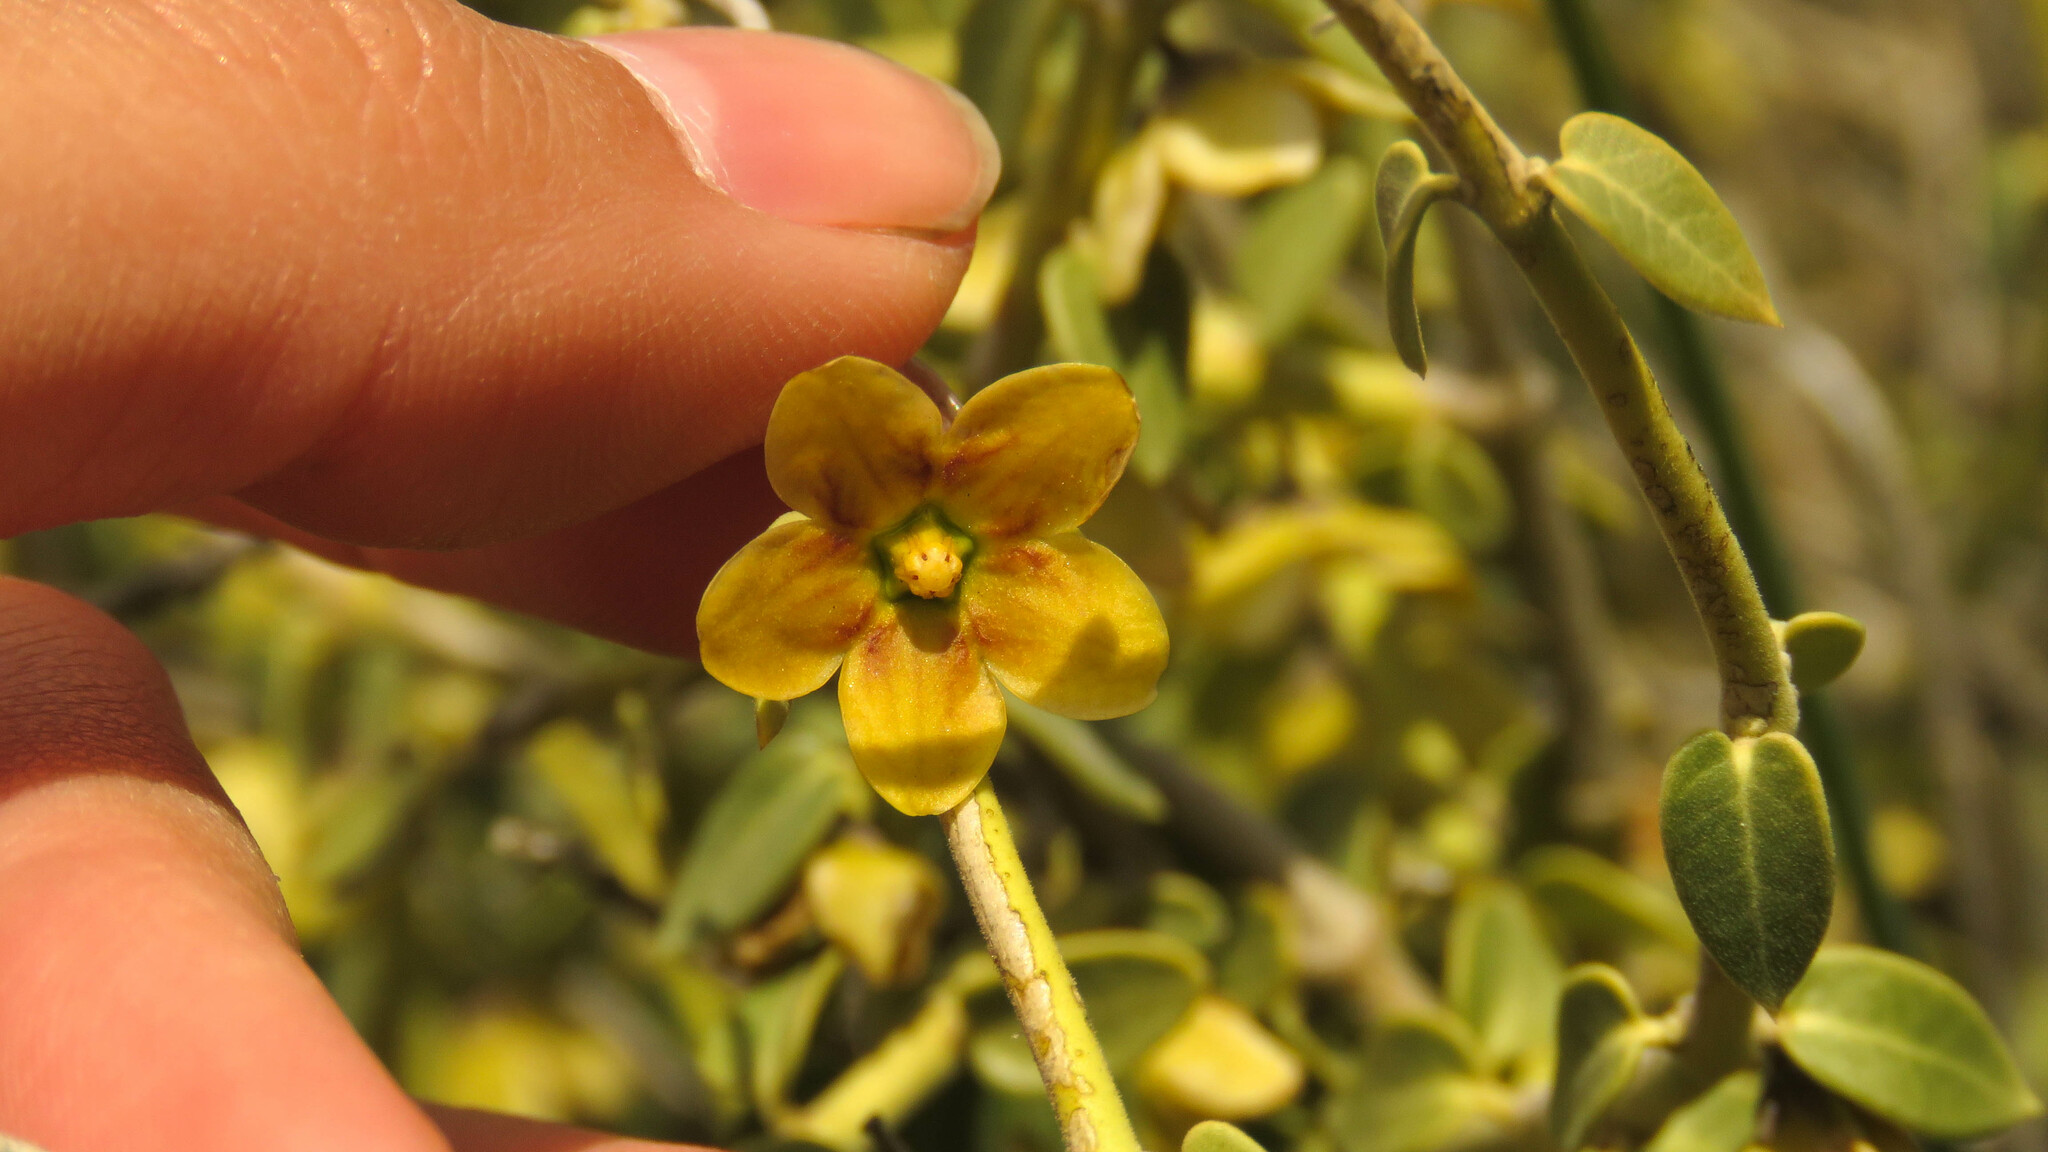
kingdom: Plantae
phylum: Tracheophyta
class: Magnoliopsida
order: Gentianales
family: Apocynaceae
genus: Diplolepis
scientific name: Diplolepis hieronymi
